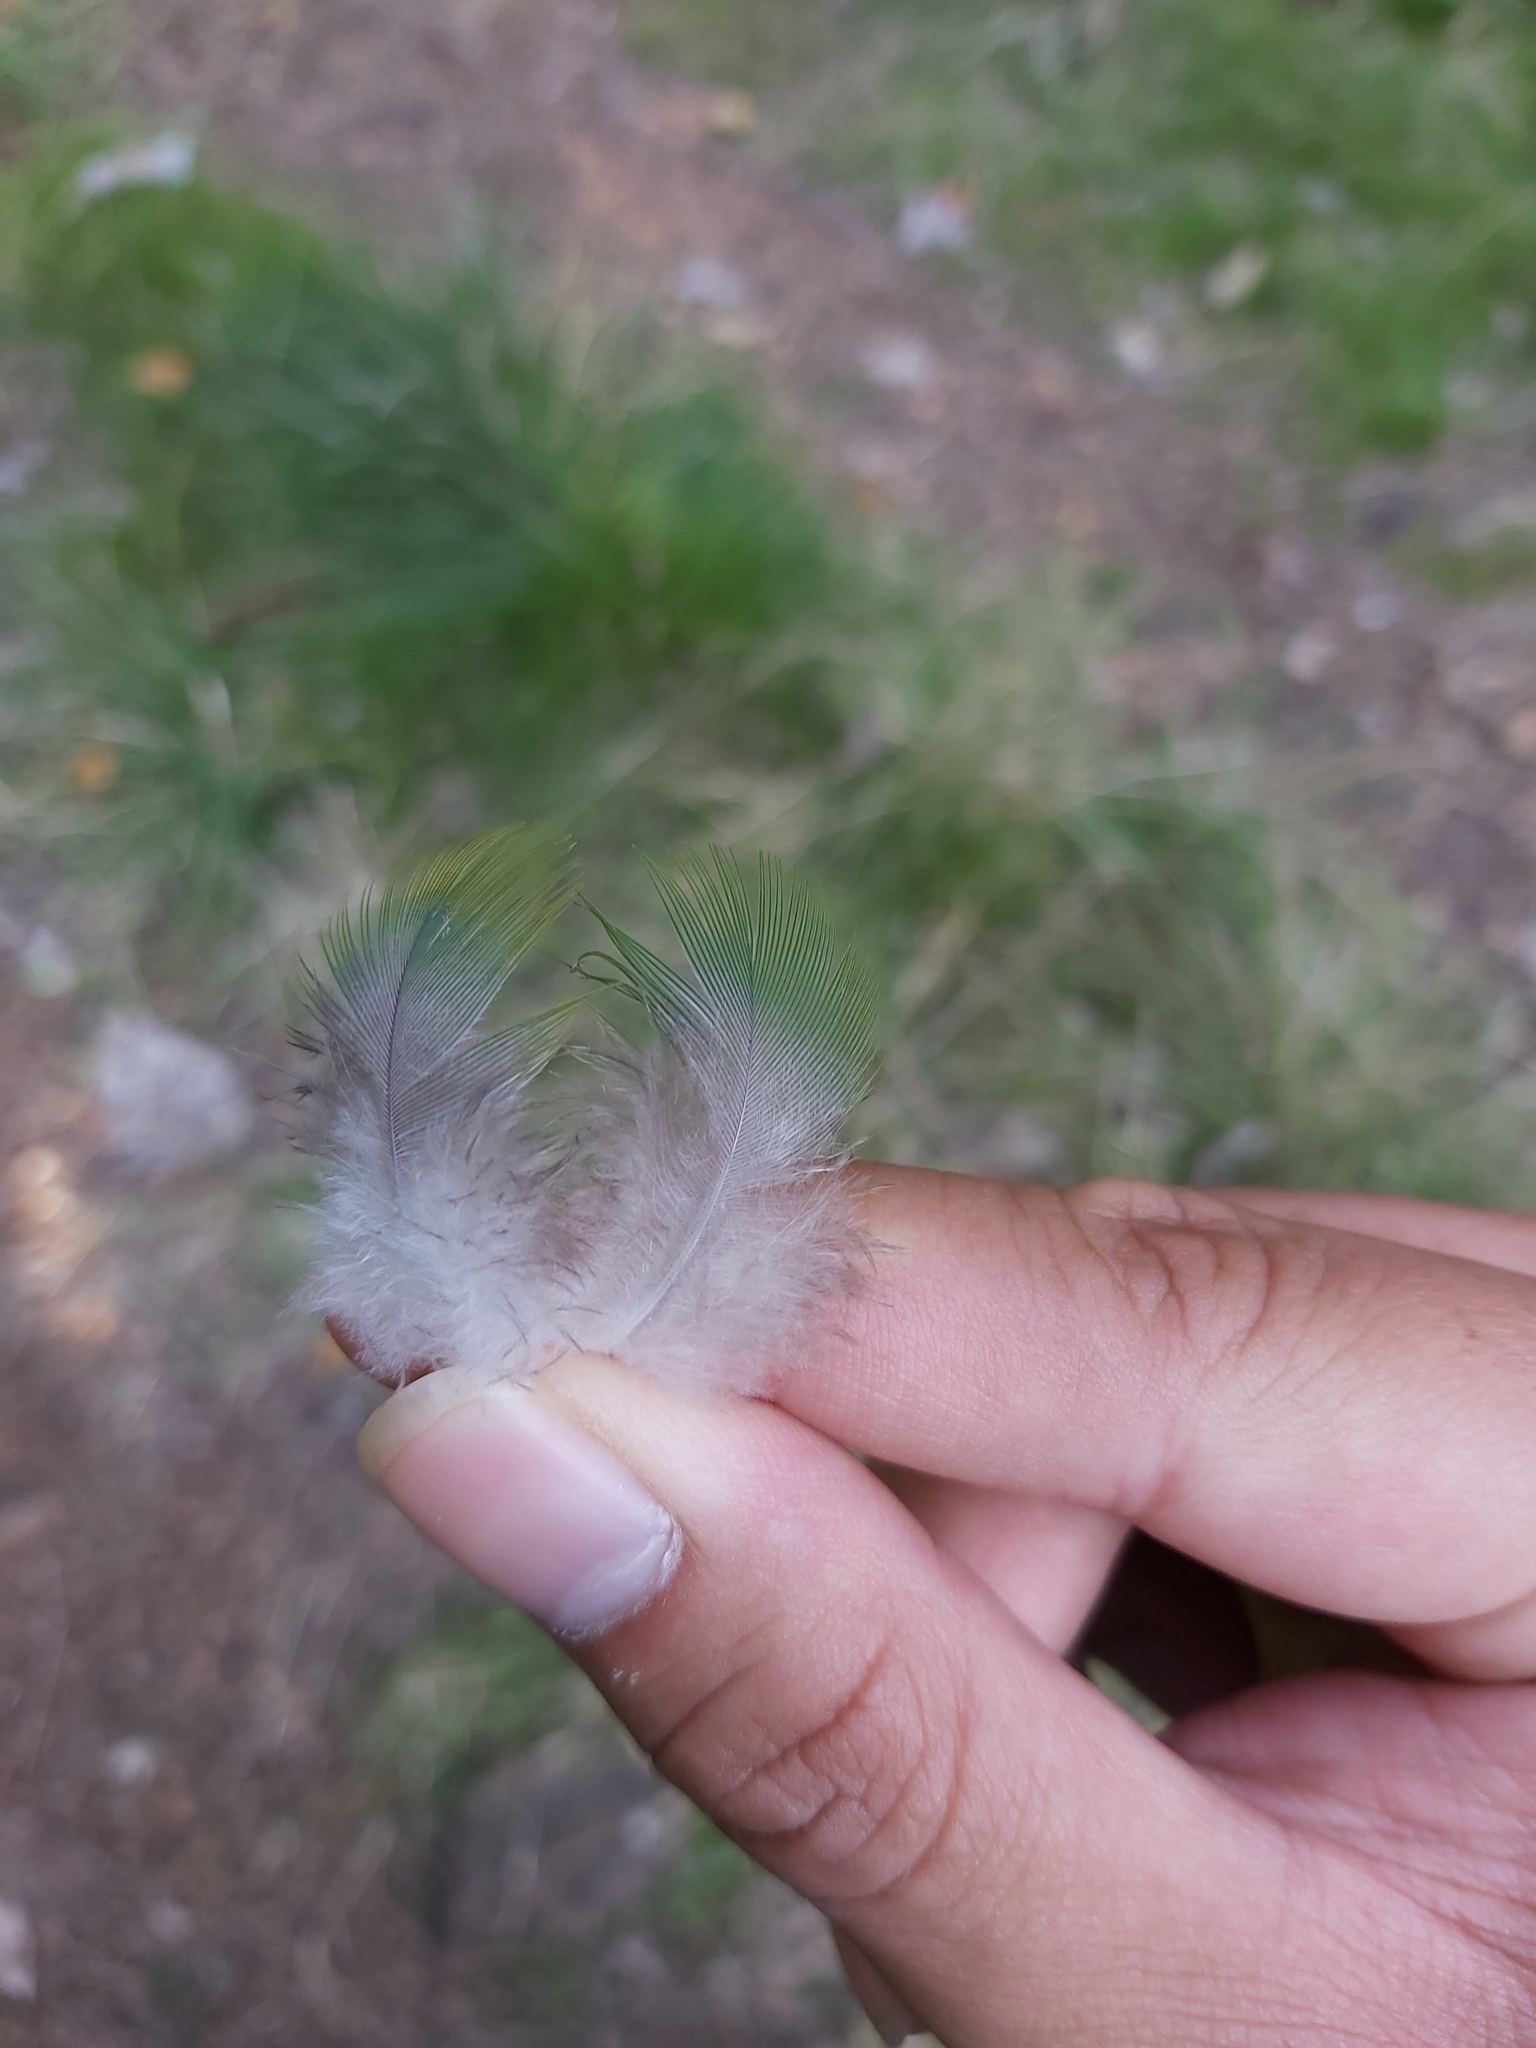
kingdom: Animalia
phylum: Chordata
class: Aves
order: Columbiformes
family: Columbidae
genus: Ptilinopus
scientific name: Ptilinopus magnificus
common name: Wompoo fruit dove
